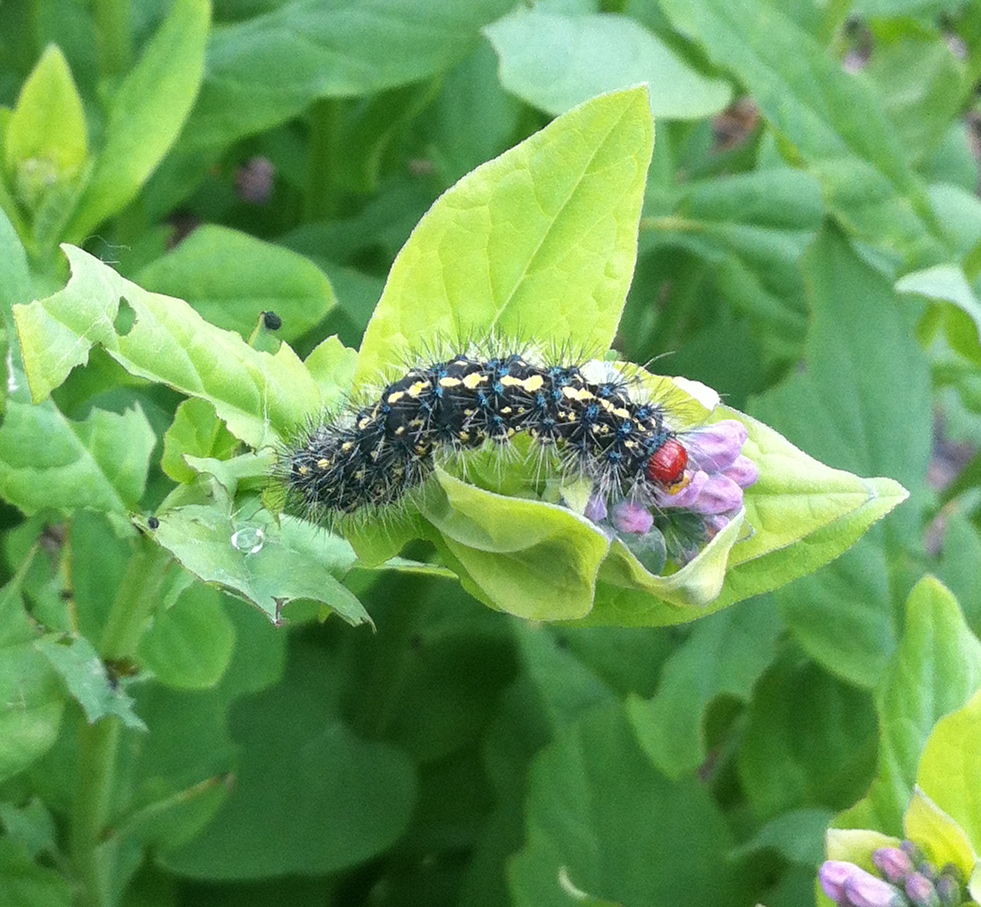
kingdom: Animalia
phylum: Arthropoda
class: Insecta
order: Lepidoptera
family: Erebidae
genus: Gnophaela
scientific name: Gnophaela vermiculata
